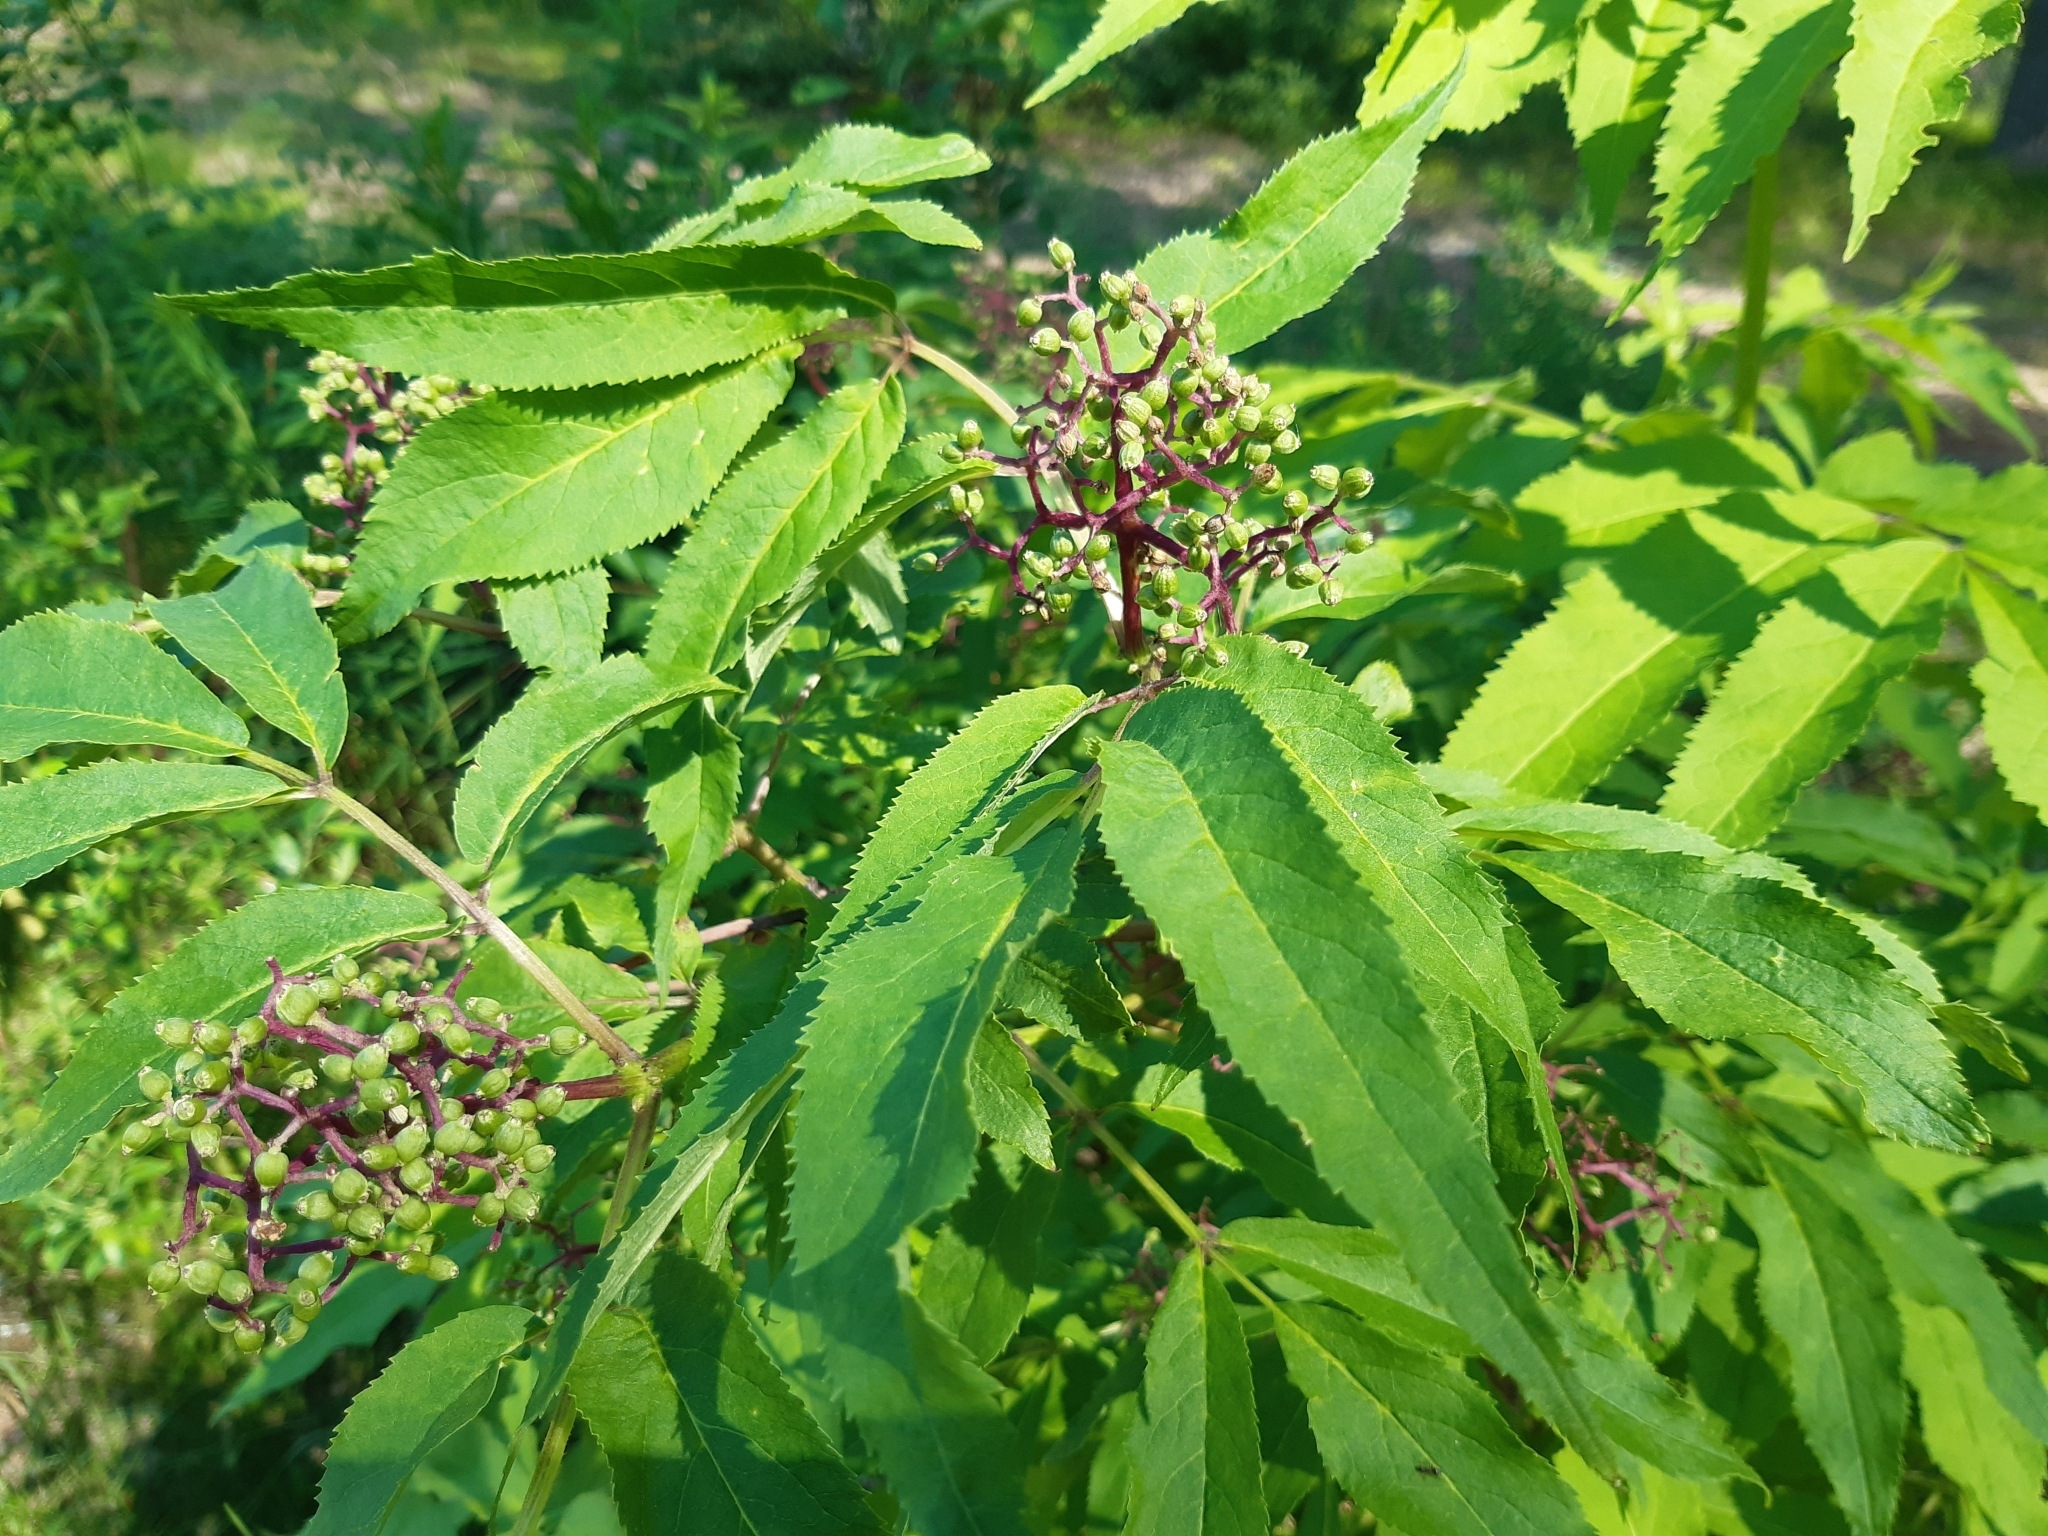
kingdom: Plantae
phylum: Tracheophyta
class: Magnoliopsida
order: Dipsacales
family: Viburnaceae
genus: Sambucus
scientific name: Sambucus racemosa
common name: Red-berried elder
